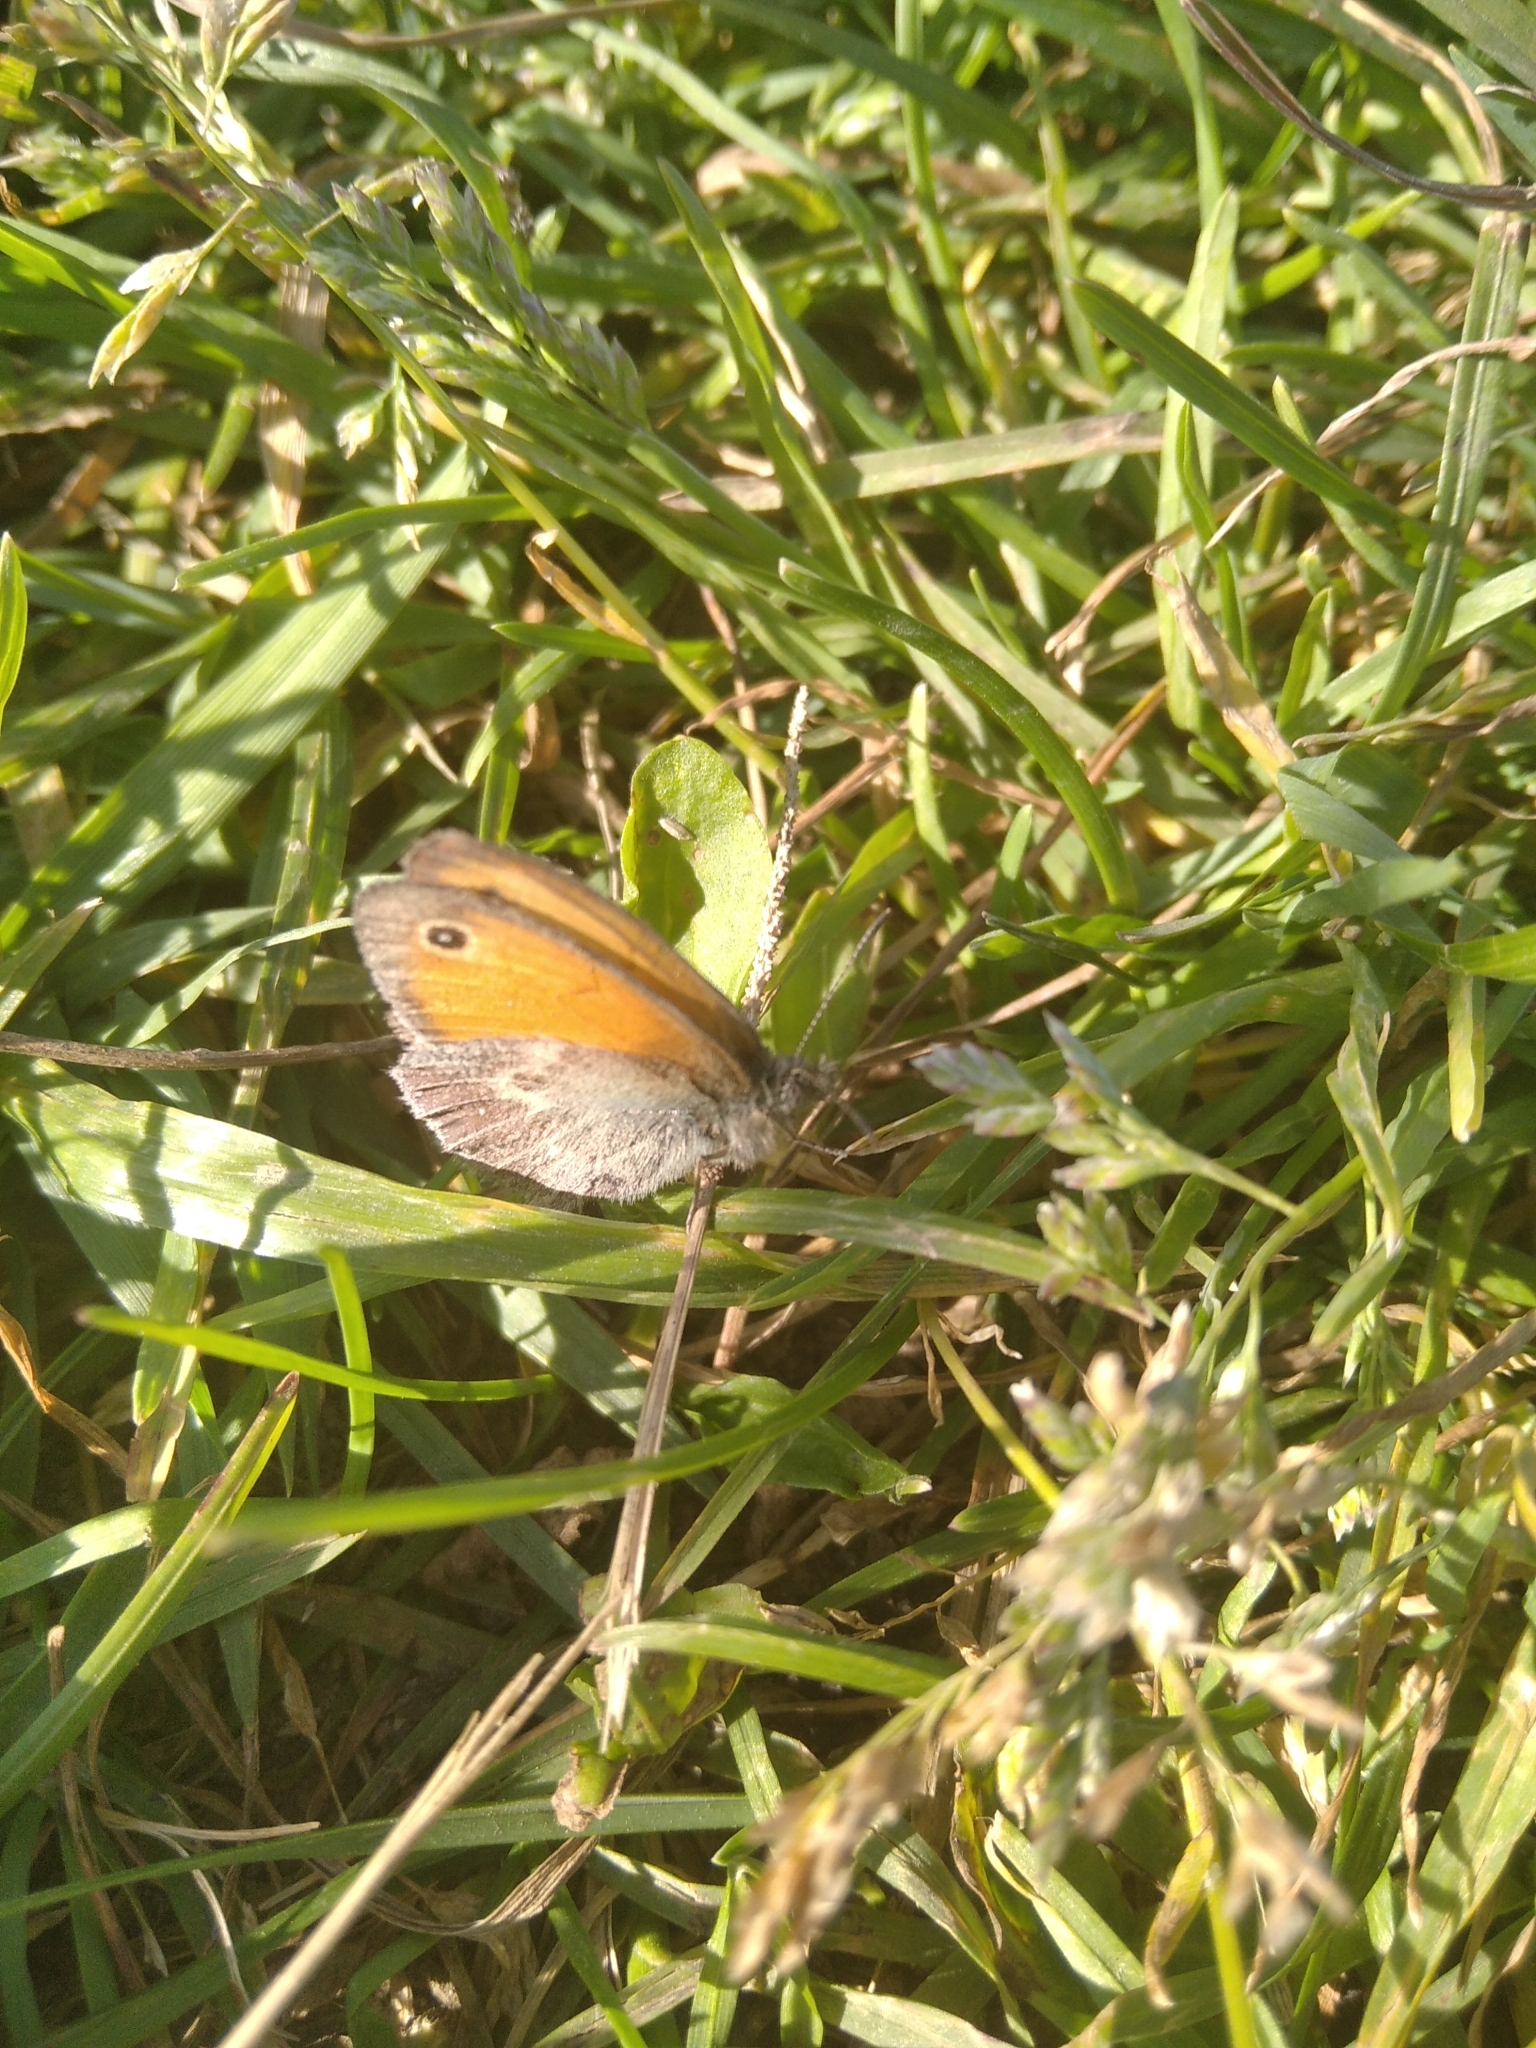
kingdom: Animalia
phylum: Arthropoda
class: Insecta
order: Lepidoptera
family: Nymphalidae
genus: Coenonympha
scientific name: Coenonympha pamphilus
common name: Small heath
